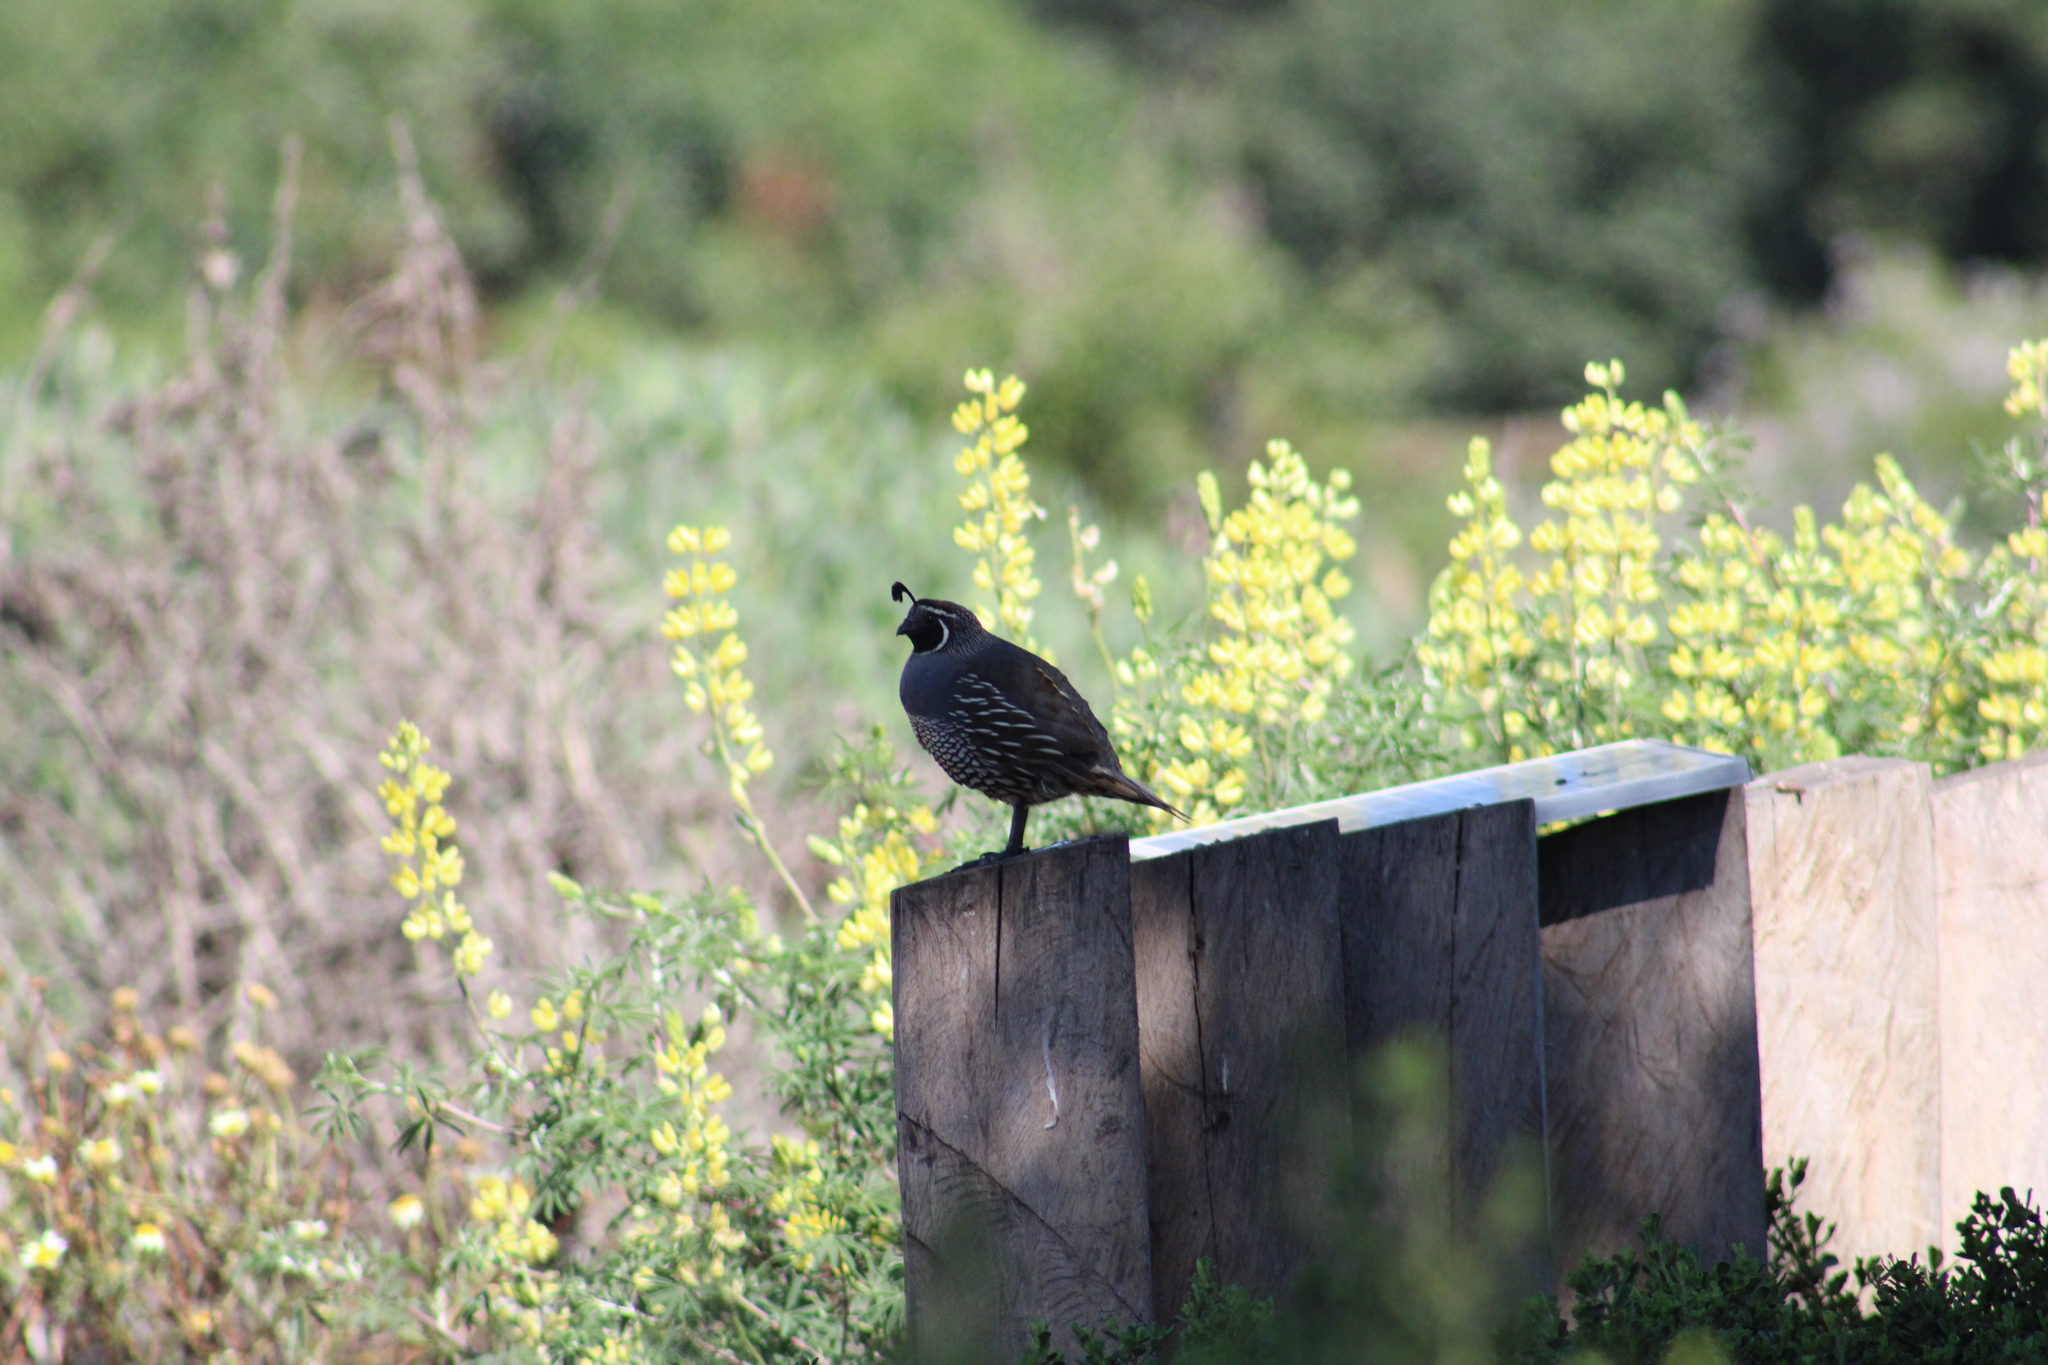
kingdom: Animalia
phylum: Chordata
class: Aves
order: Galliformes
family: Odontophoridae
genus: Callipepla
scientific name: Callipepla californica
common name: California quail
